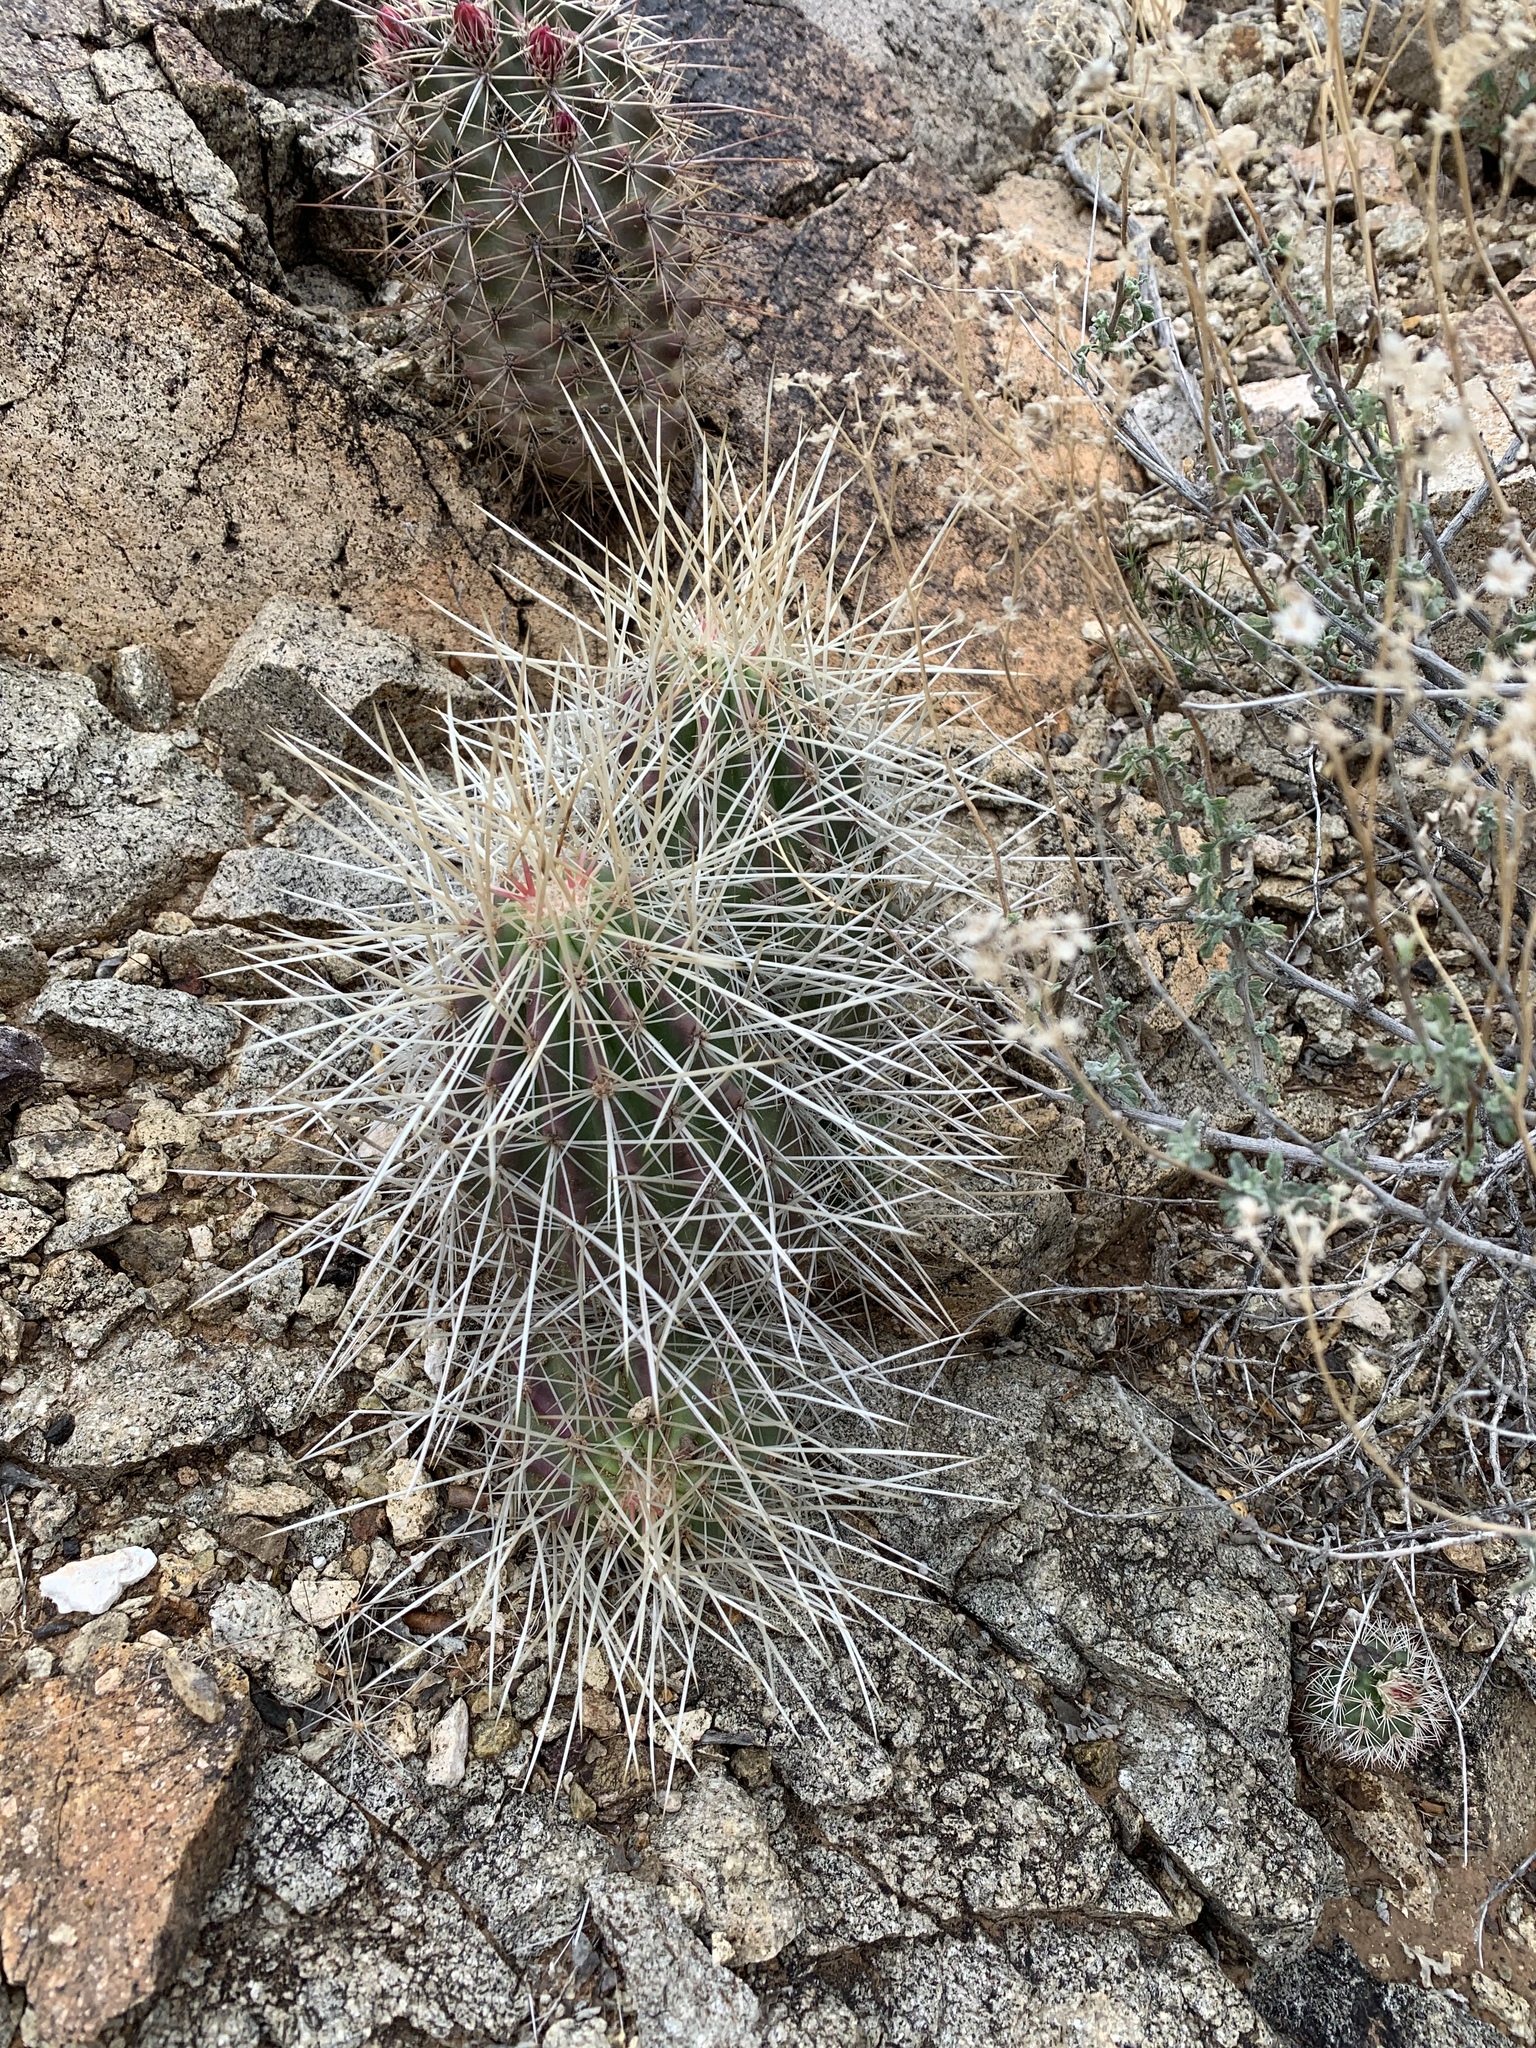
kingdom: Plantae
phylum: Tracheophyta
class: Magnoliopsida
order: Caryophyllales
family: Cactaceae
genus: Echinocereus
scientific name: Echinocereus stramineus
